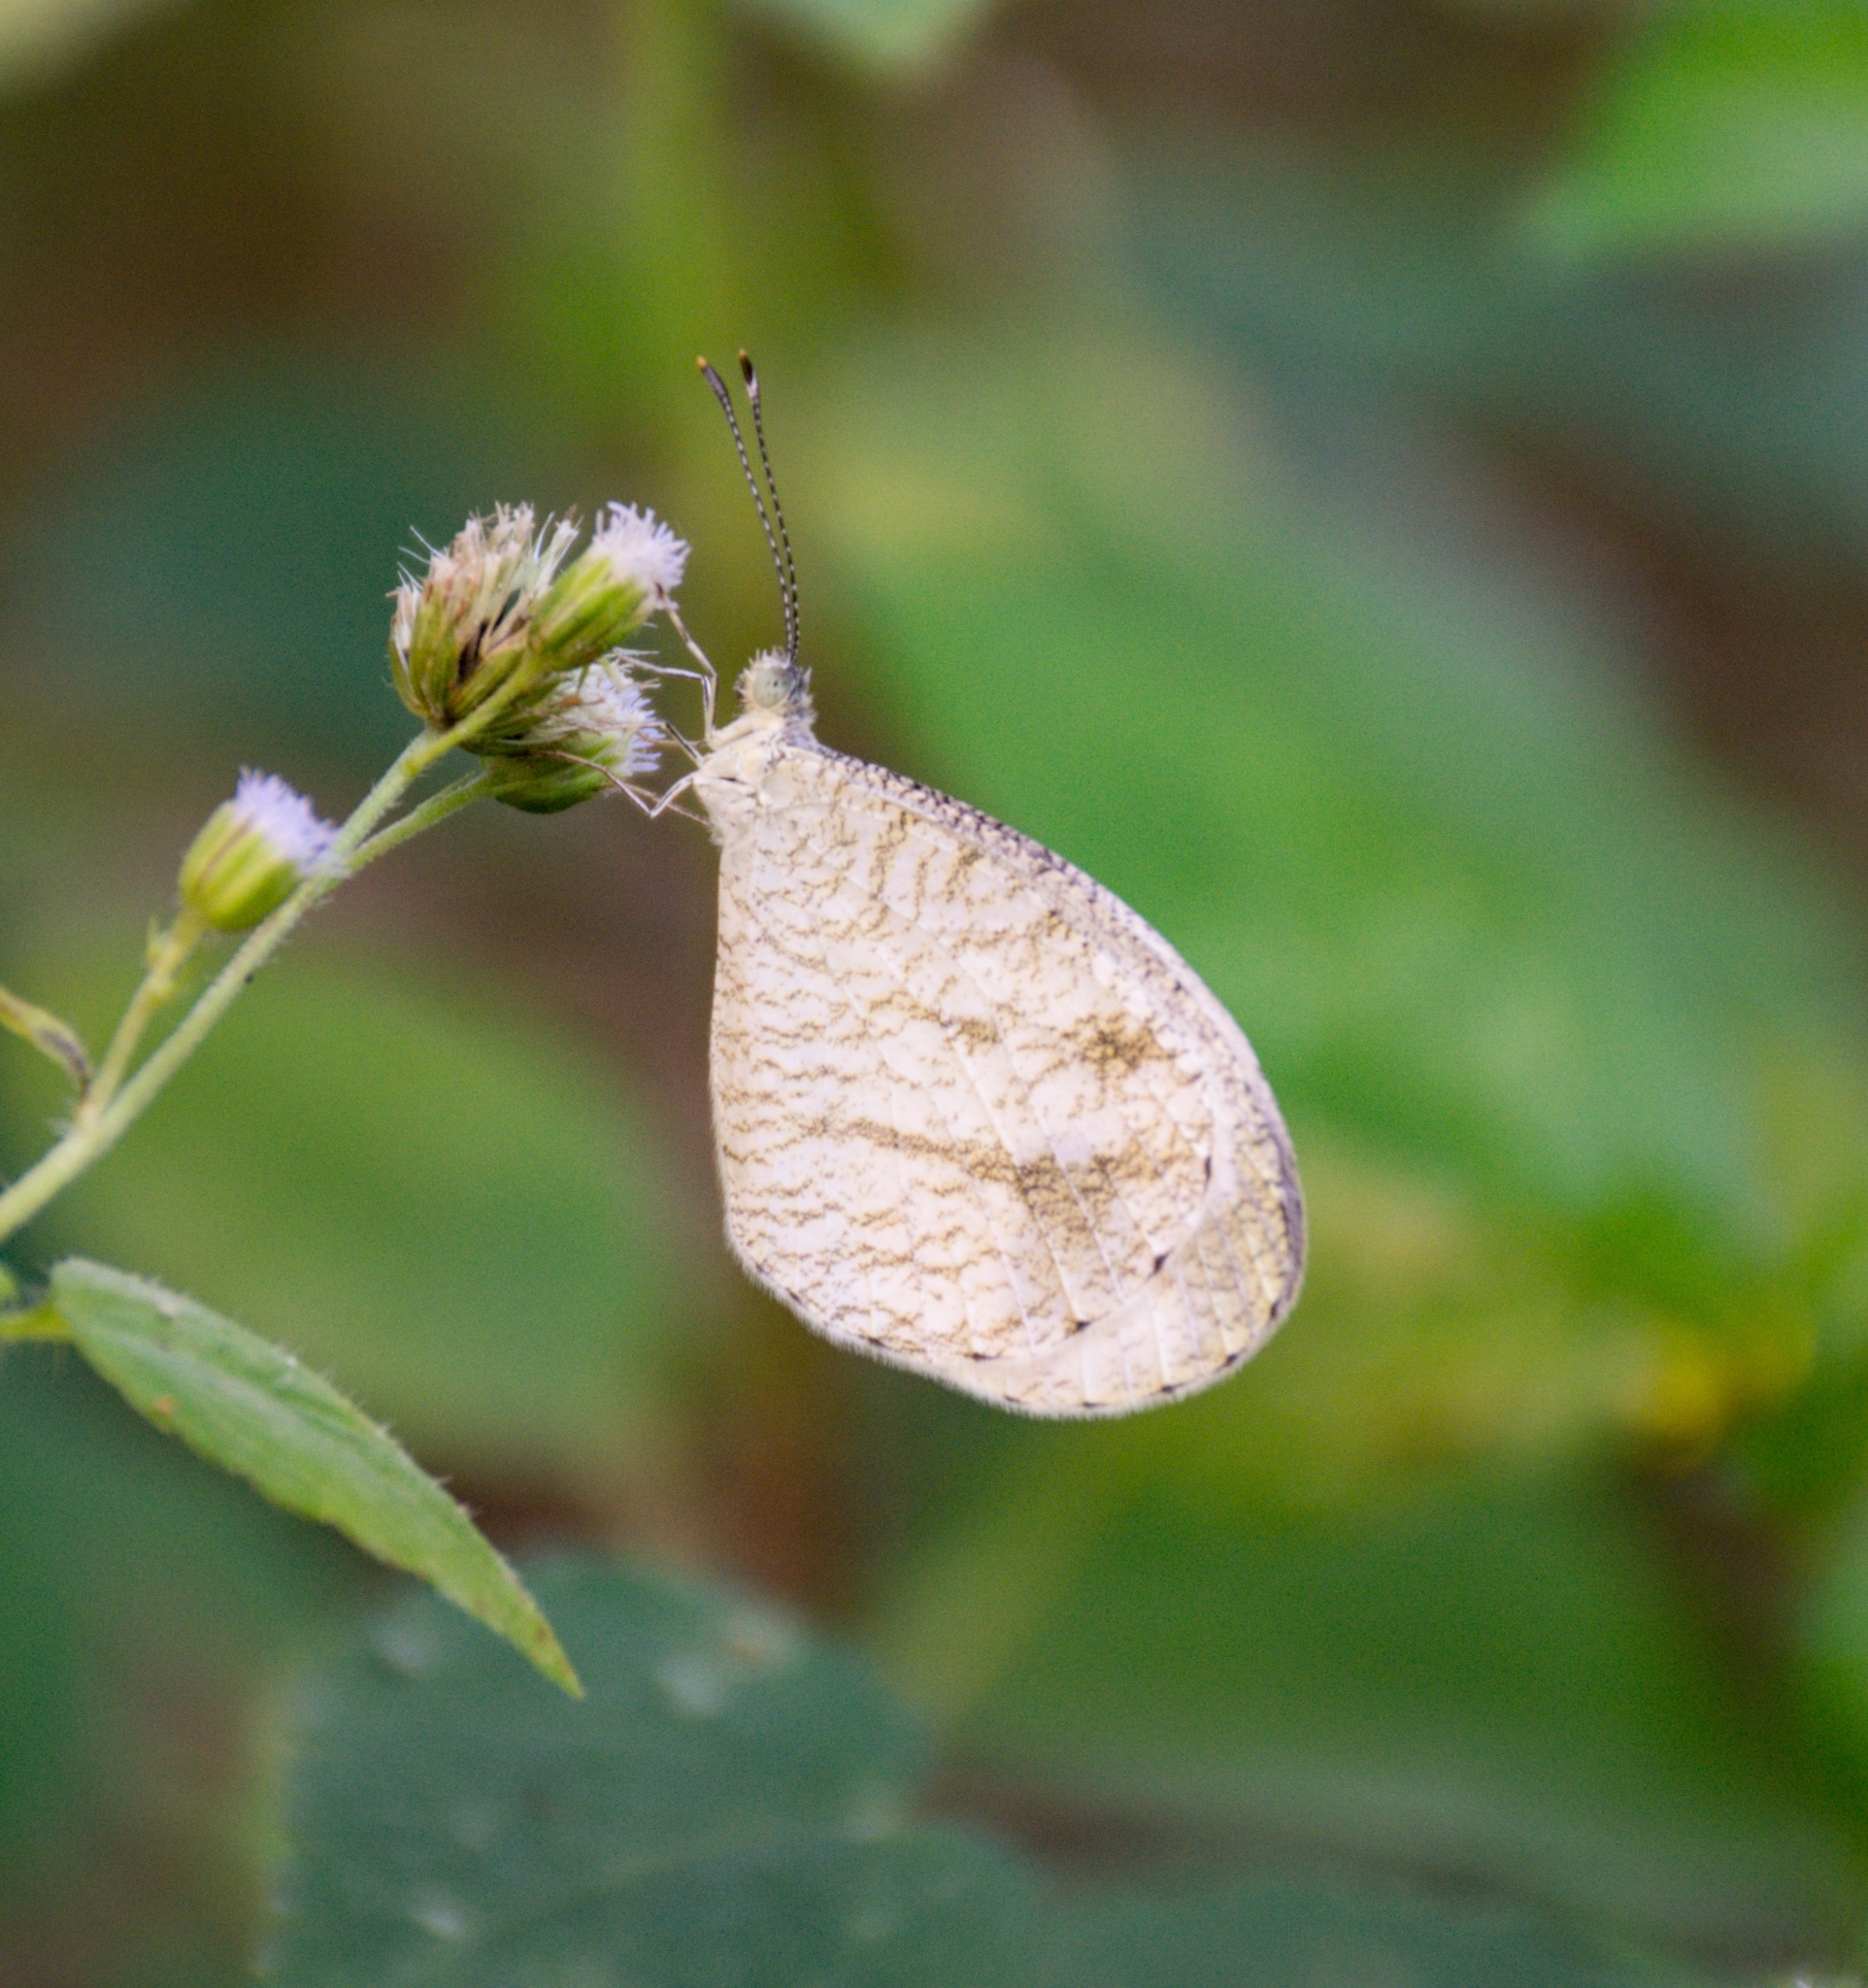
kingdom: Animalia
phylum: Arthropoda
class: Insecta
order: Lepidoptera
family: Pieridae
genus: Leptosia
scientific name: Leptosia nina
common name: Psyche
